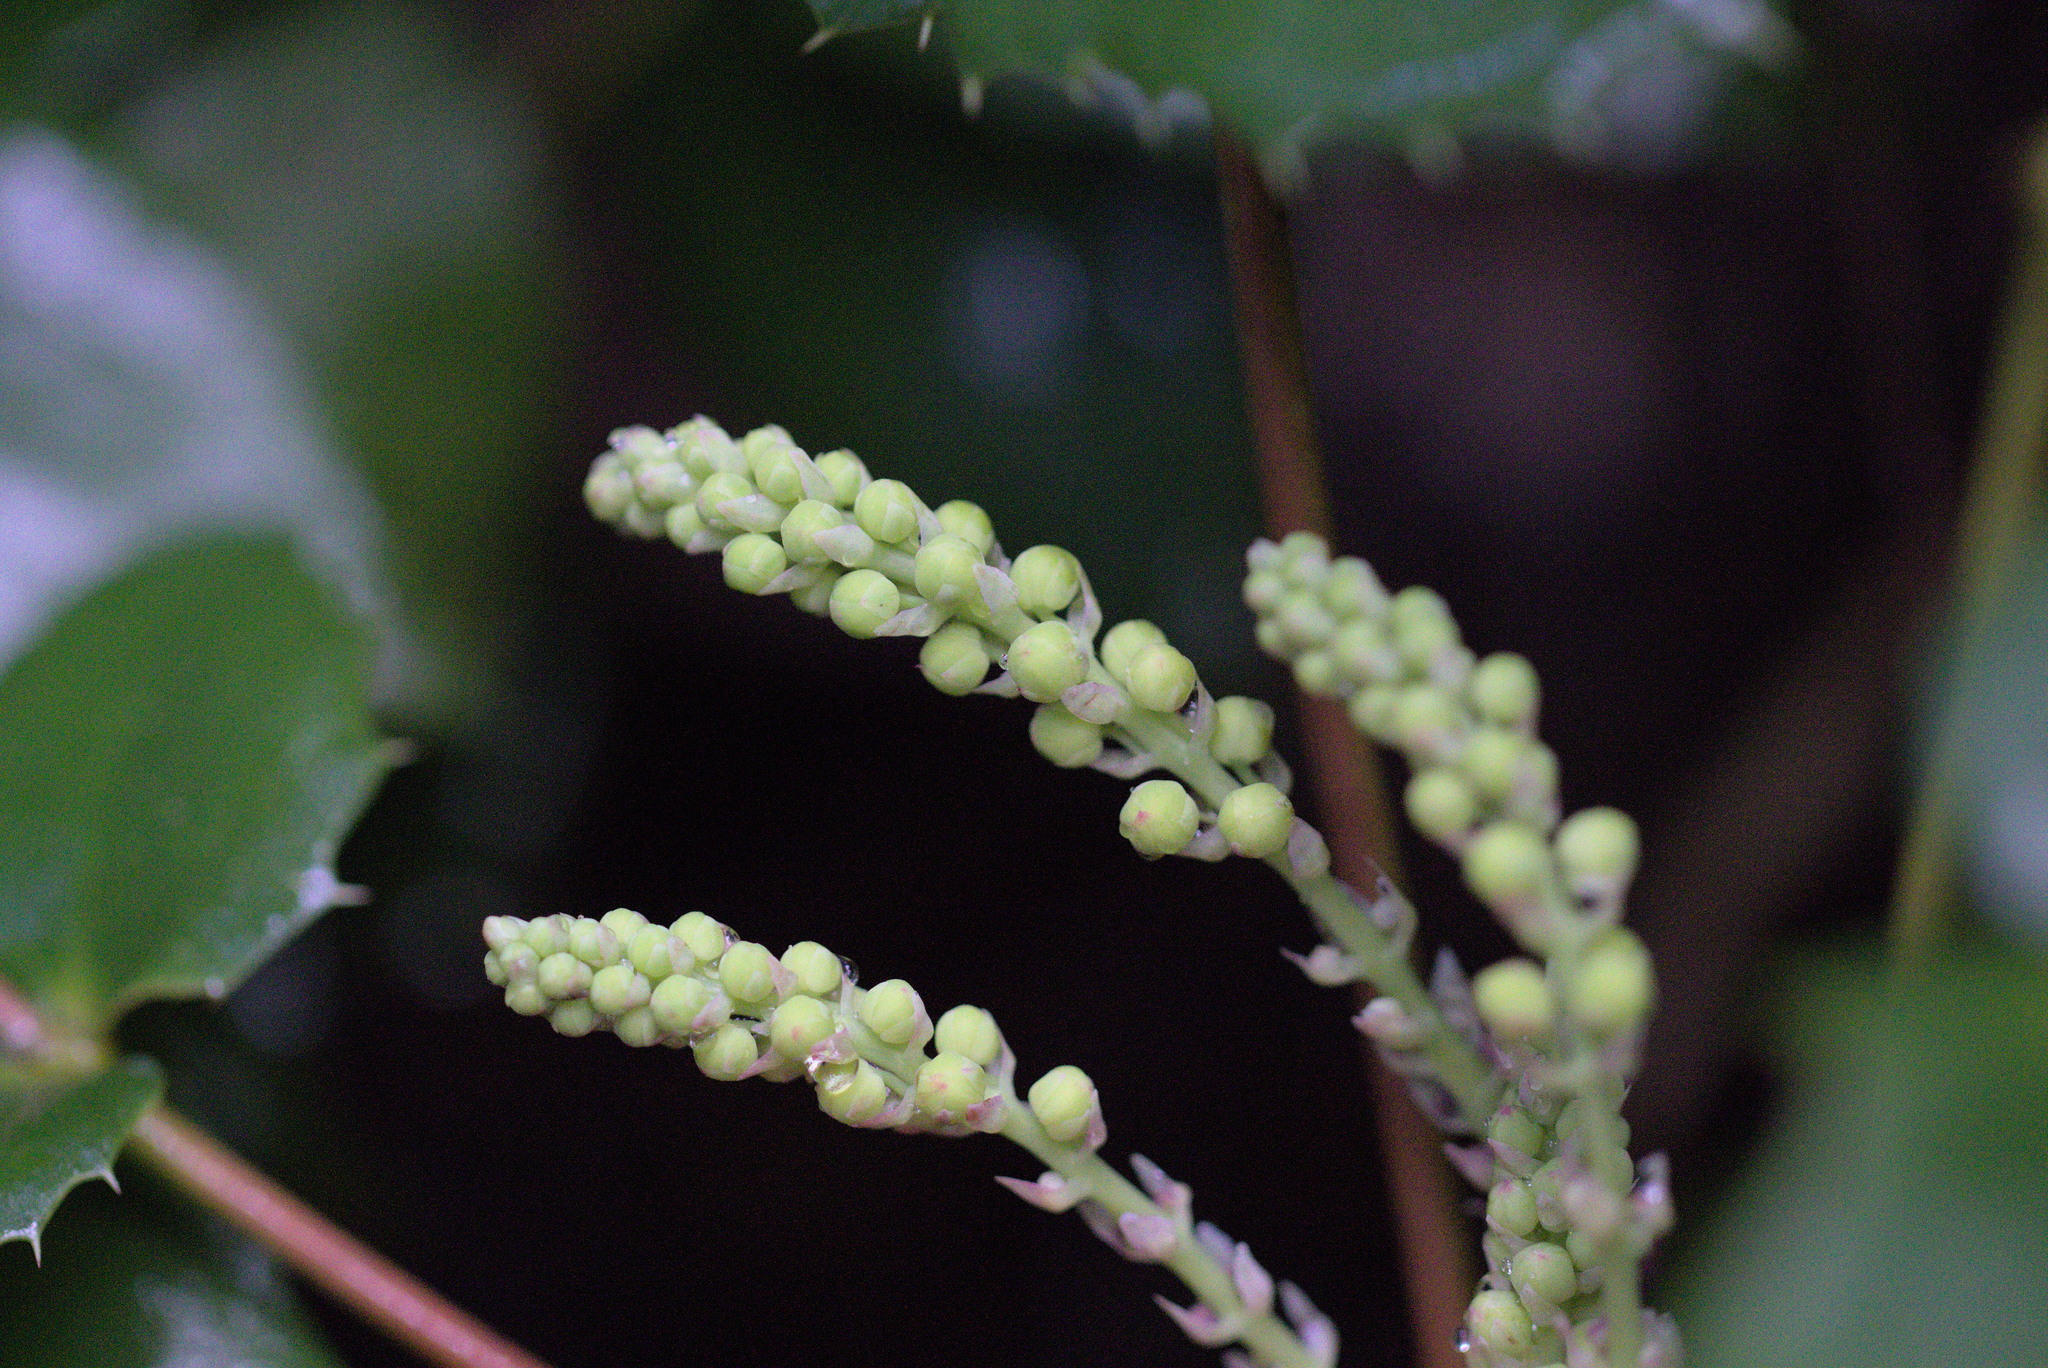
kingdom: Plantae
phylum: Tracheophyta
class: Magnoliopsida
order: Ranunculales
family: Berberidaceae
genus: Mahonia
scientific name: Mahonia nervosa
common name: Cascade oregon-grape
